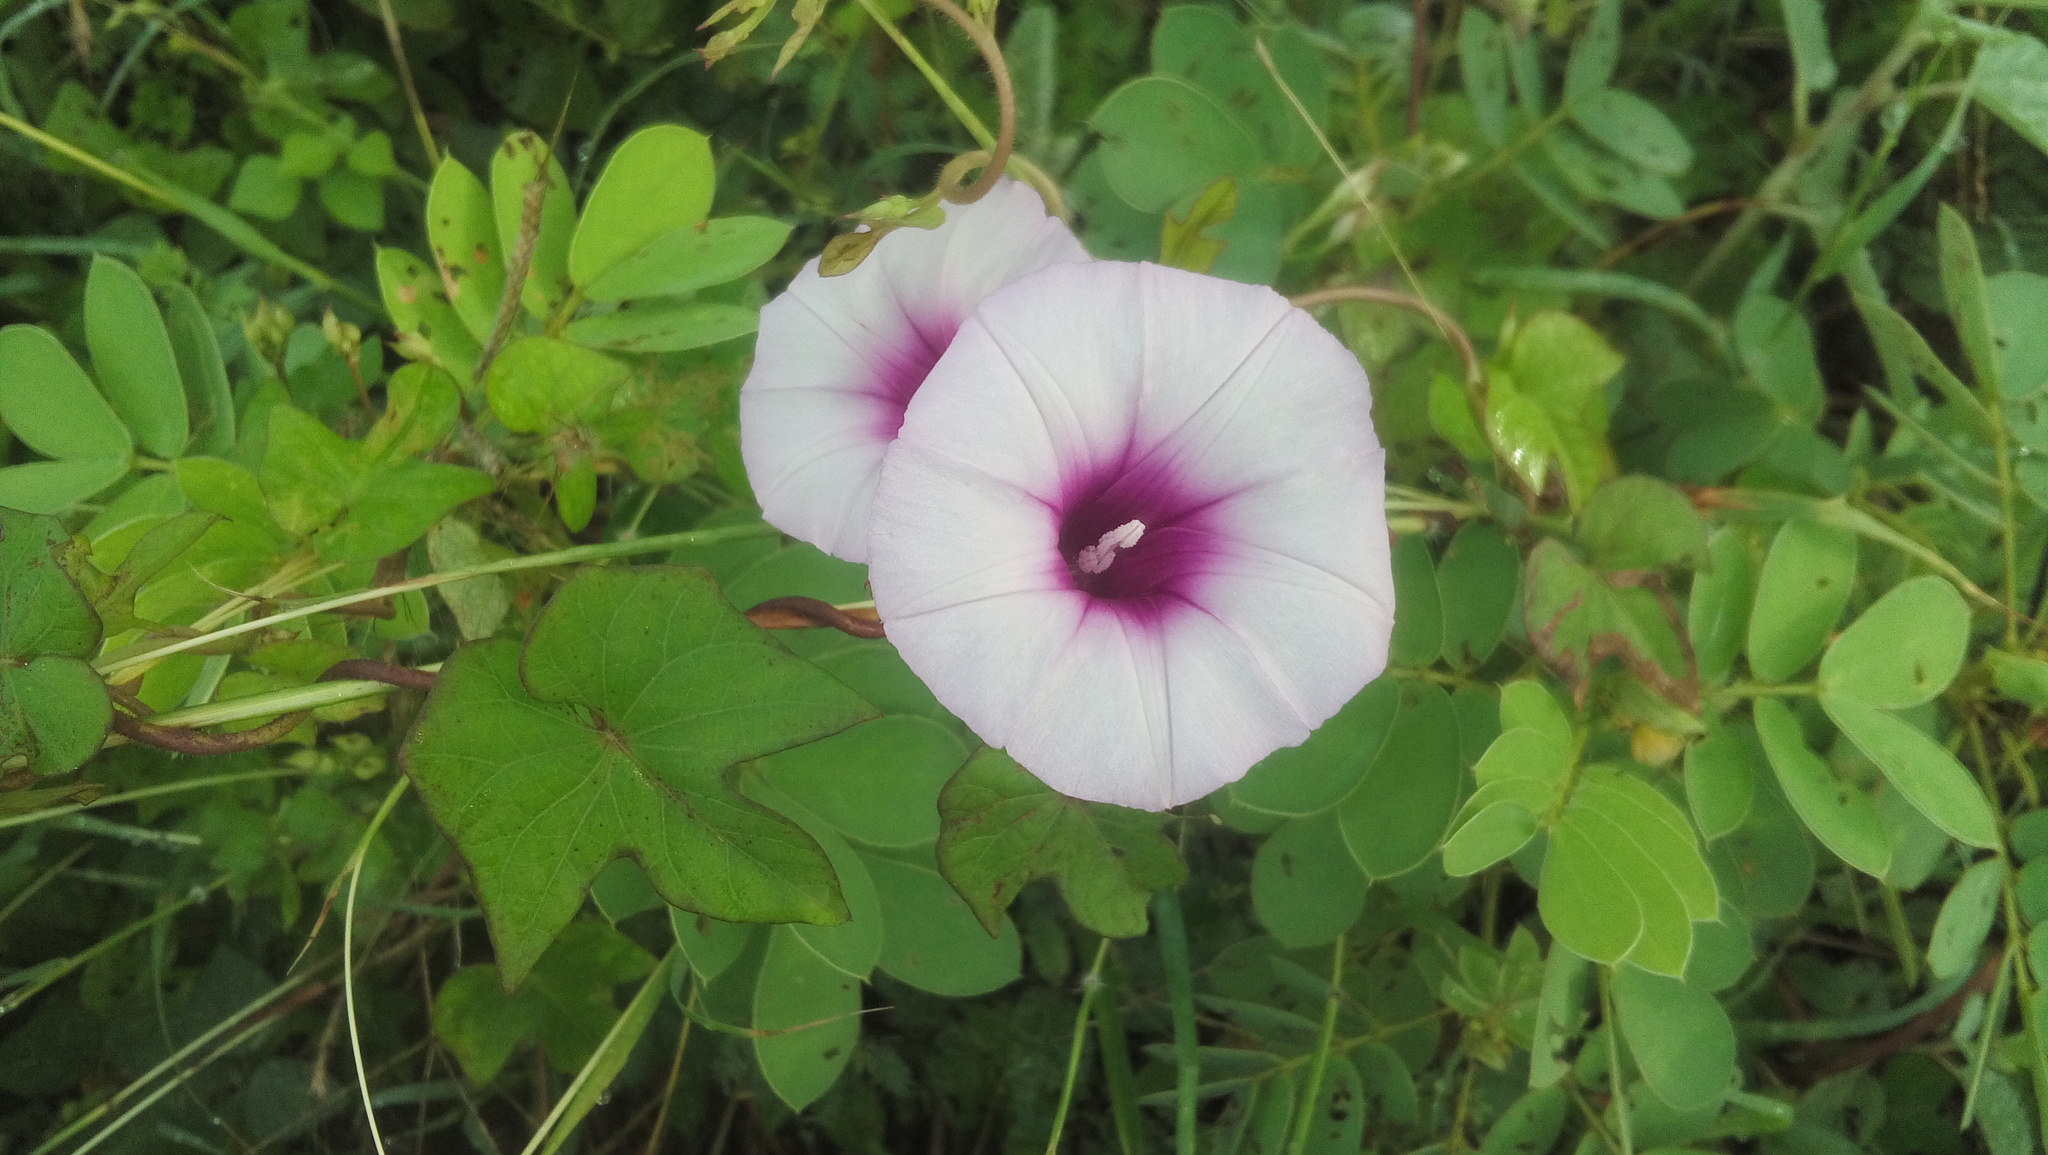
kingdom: Plantae
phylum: Tracheophyta
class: Magnoliopsida
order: Solanales
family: Convolvulaceae
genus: Ipomoea
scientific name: Ipomoea batatas
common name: Sweet-potato
